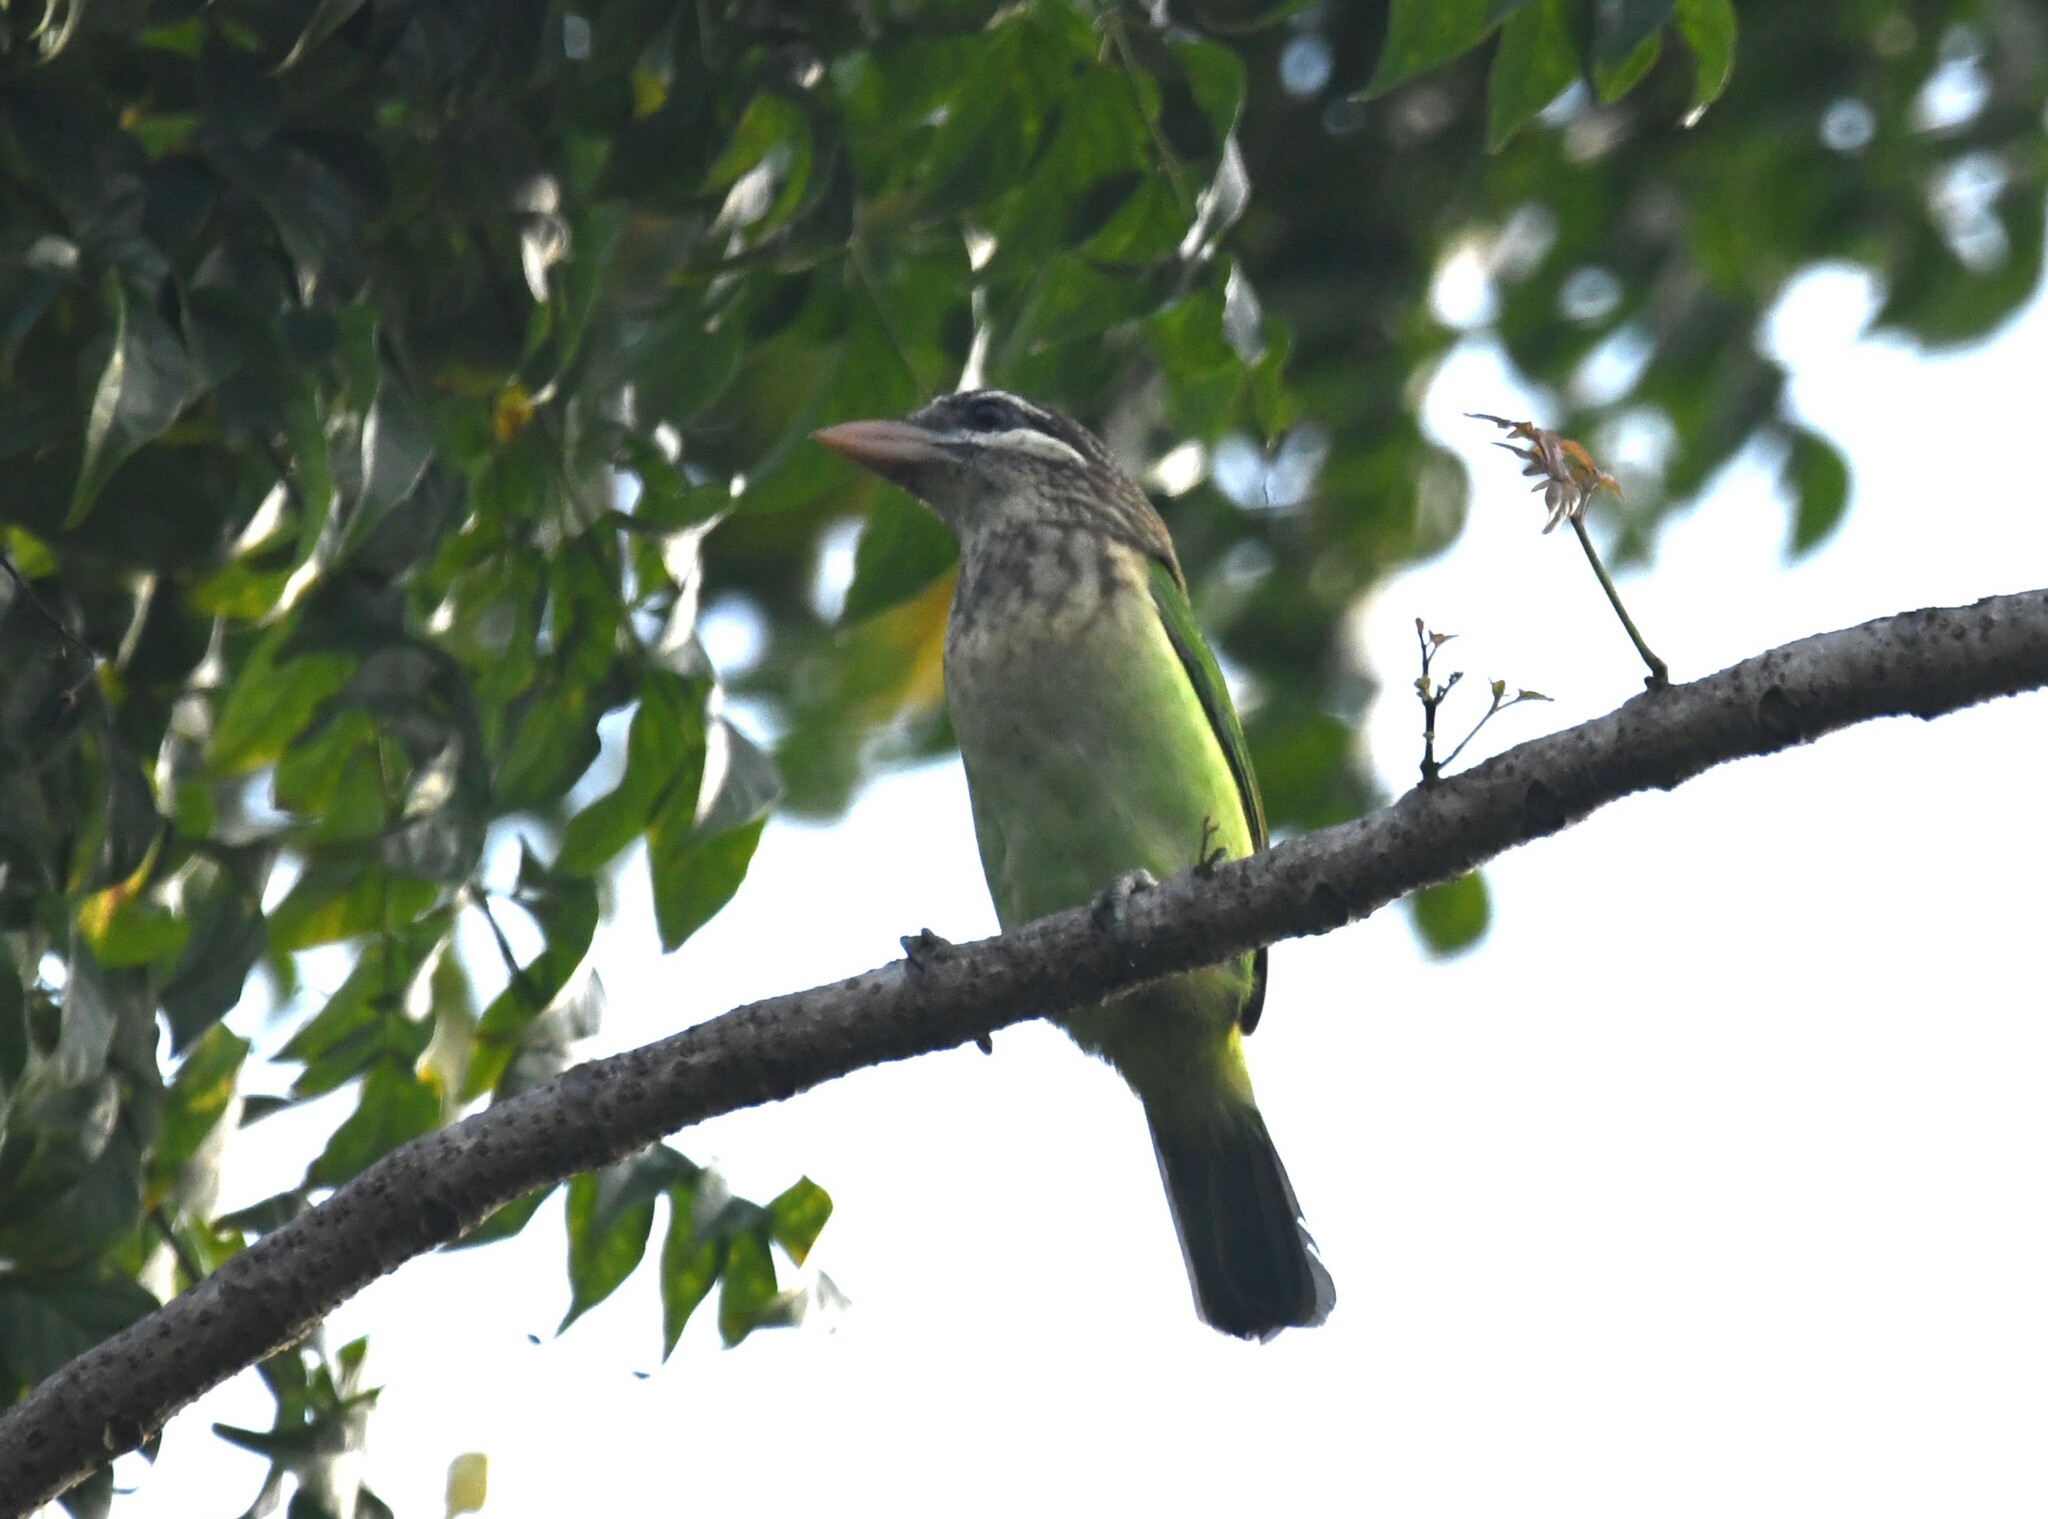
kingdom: Animalia
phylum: Chordata
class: Aves
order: Piciformes
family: Megalaimidae
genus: Psilopogon
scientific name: Psilopogon viridis
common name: White-cheeked barbet
